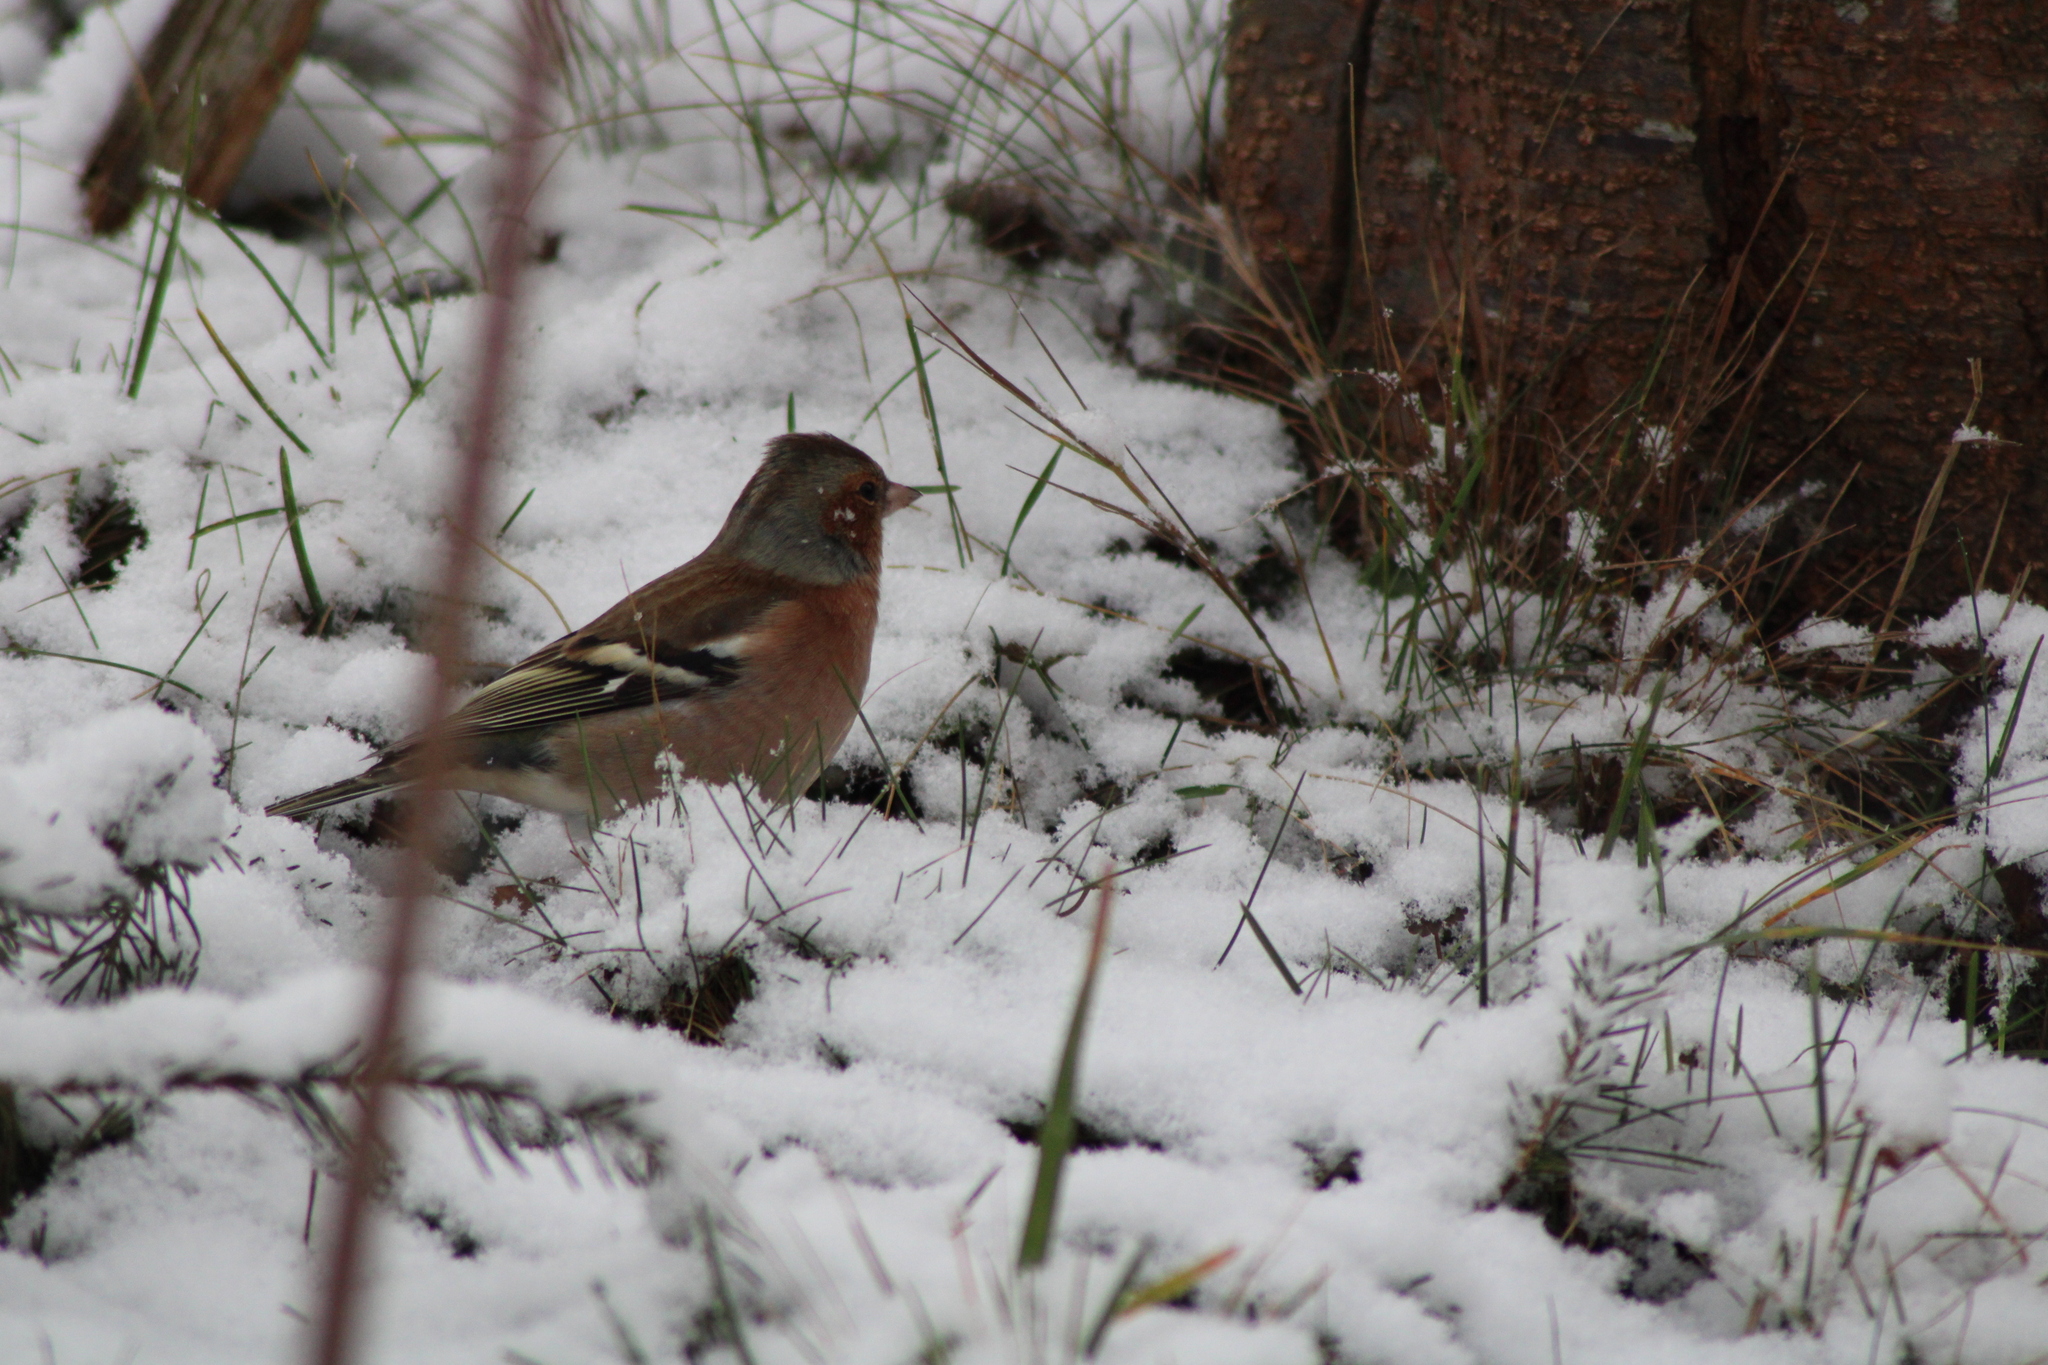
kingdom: Animalia
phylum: Chordata
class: Aves
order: Passeriformes
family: Fringillidae
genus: Fringilla
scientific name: Fringilla coelebs
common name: Common chaffinch
